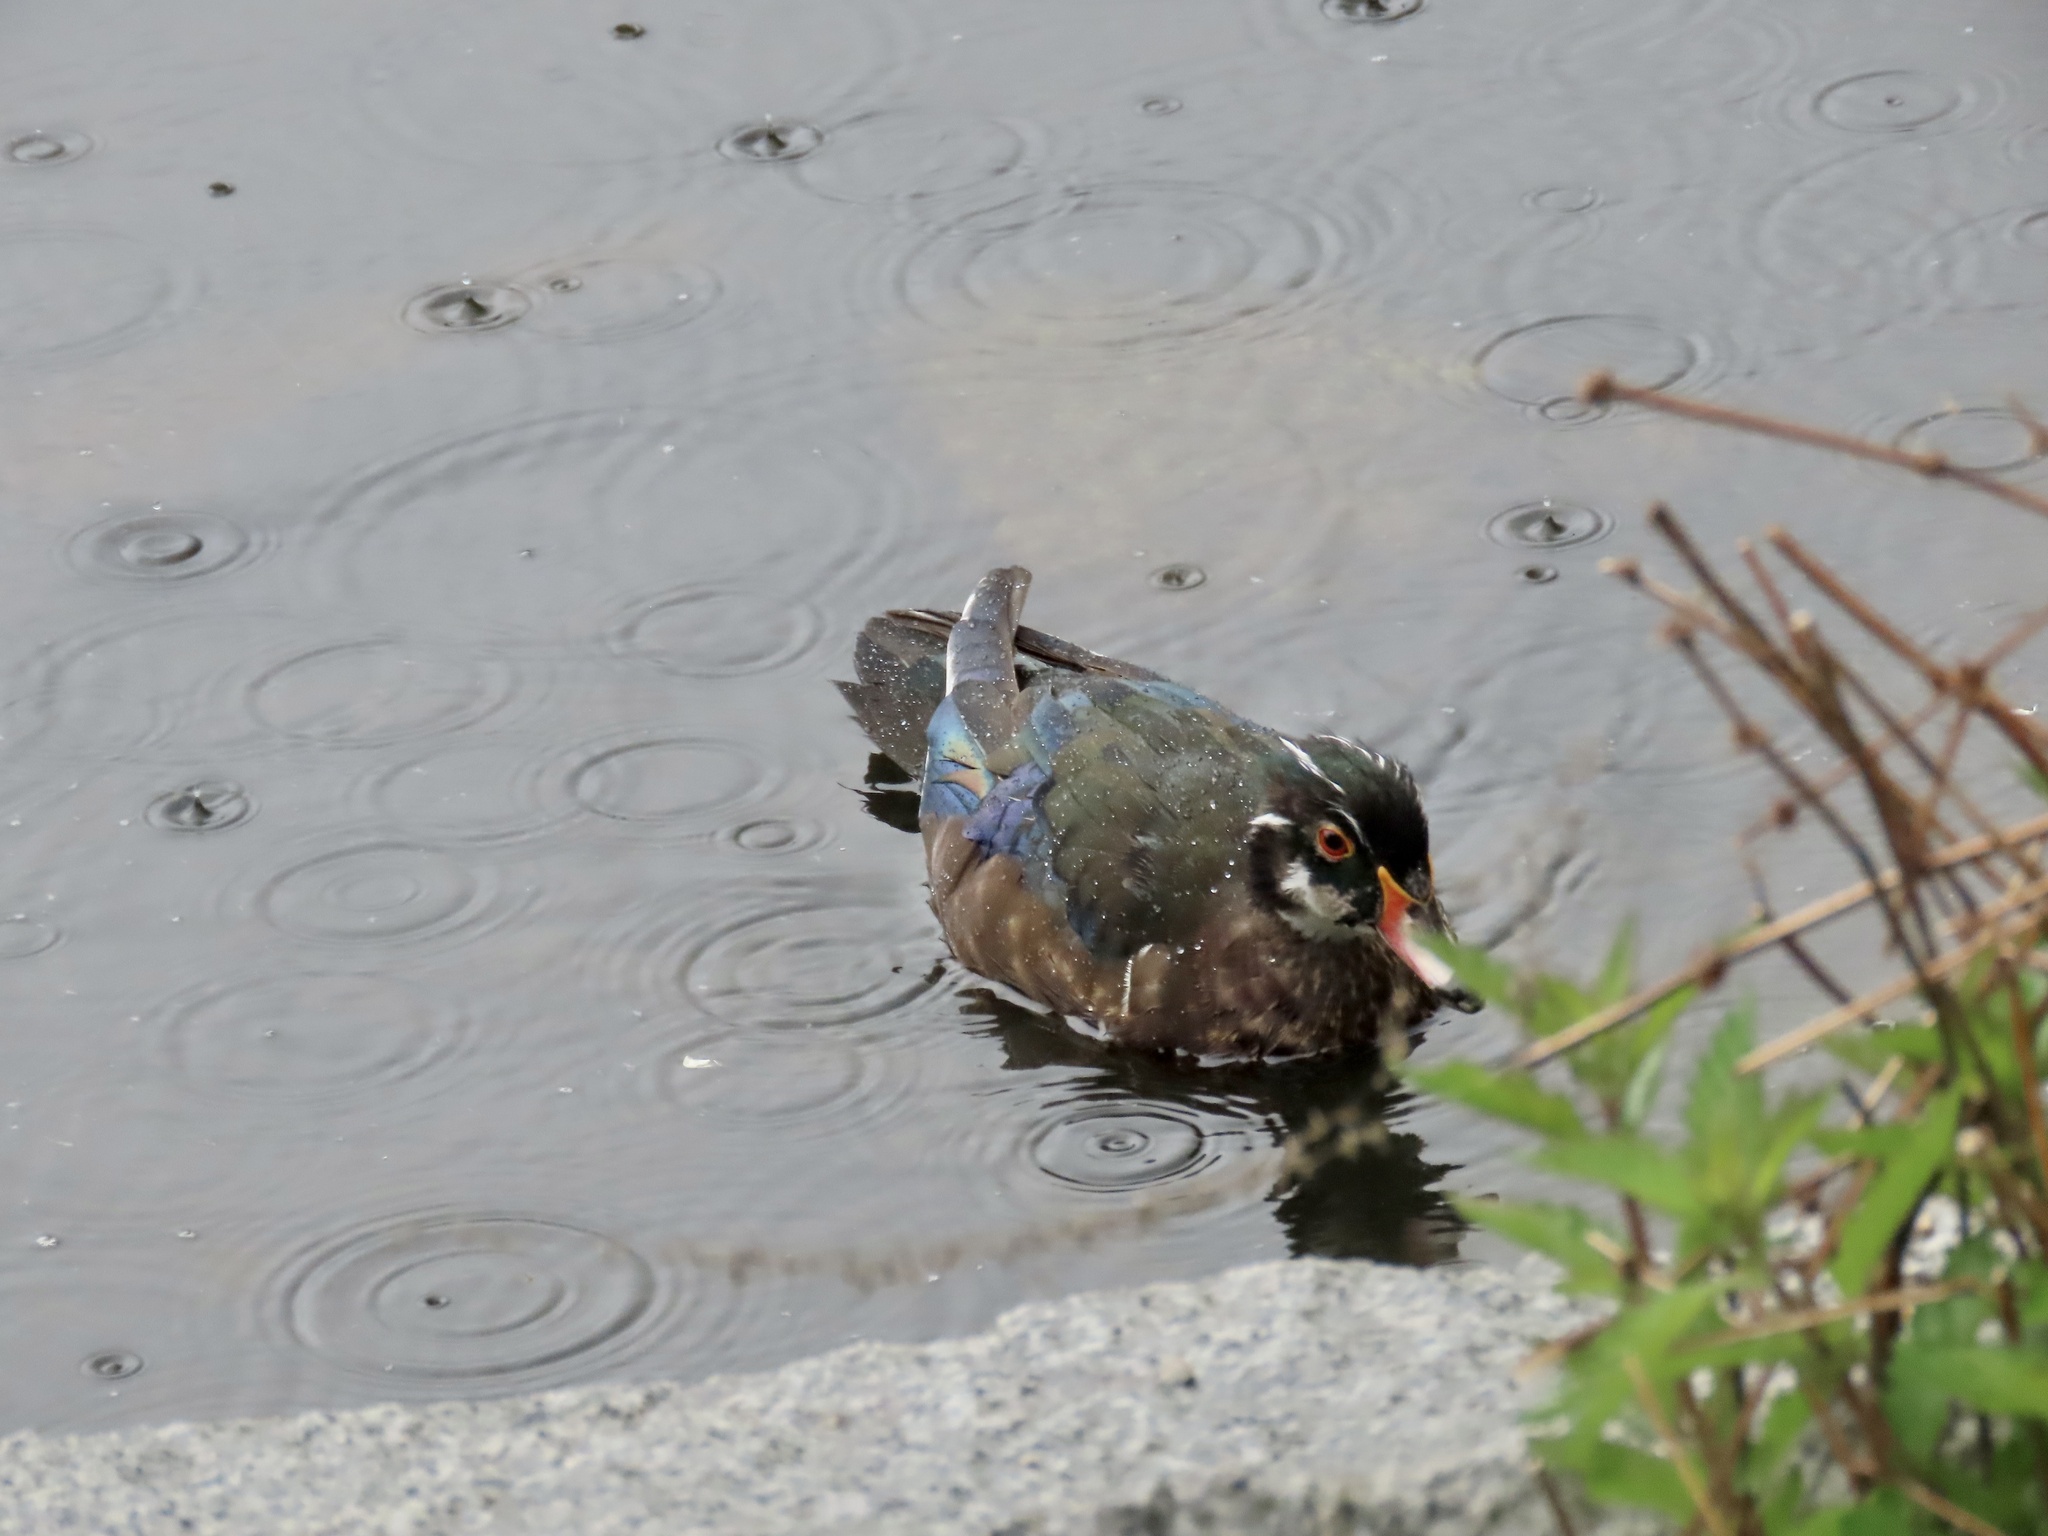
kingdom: Animalia
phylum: Chordata
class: Aves
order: Anseriformes
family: Anatidae
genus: Aix
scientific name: Aix sponsa
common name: Wood duck
